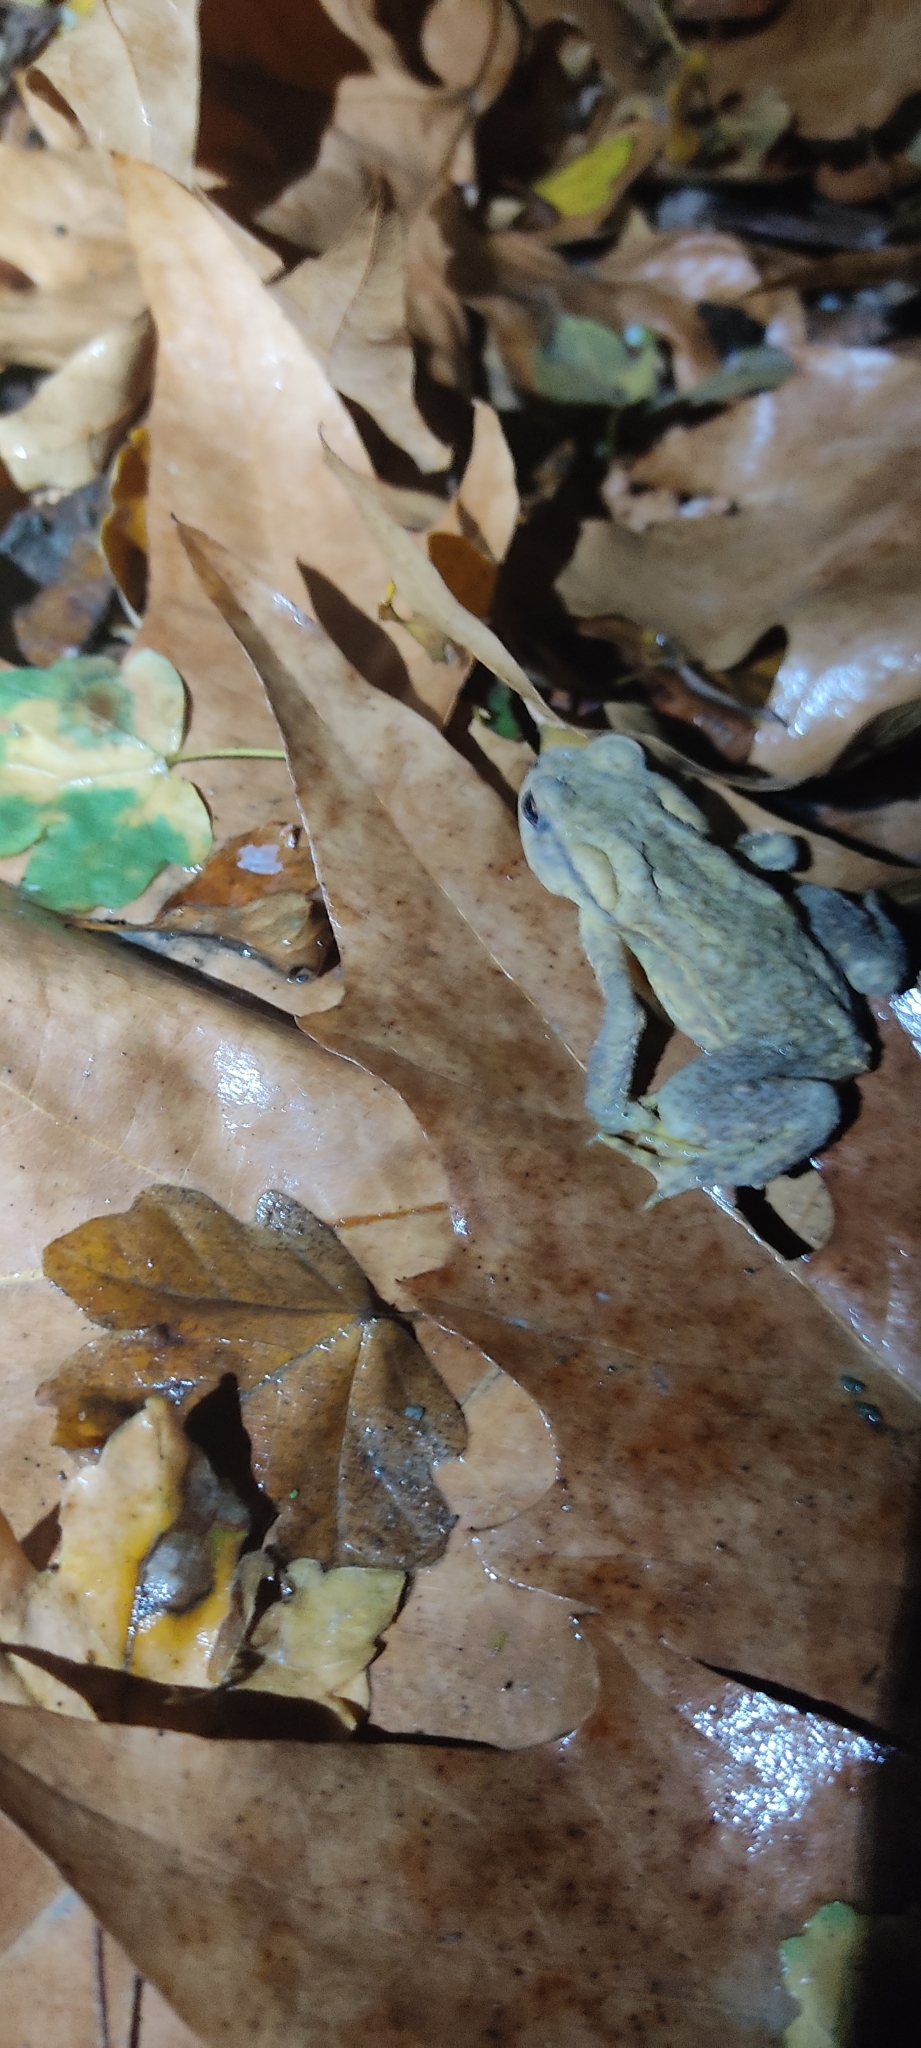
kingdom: Animalia
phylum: Chordata
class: Amphibia
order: Anura
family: Bufonidae
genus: Bufo
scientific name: Bufo spinosus
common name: Western common toad
